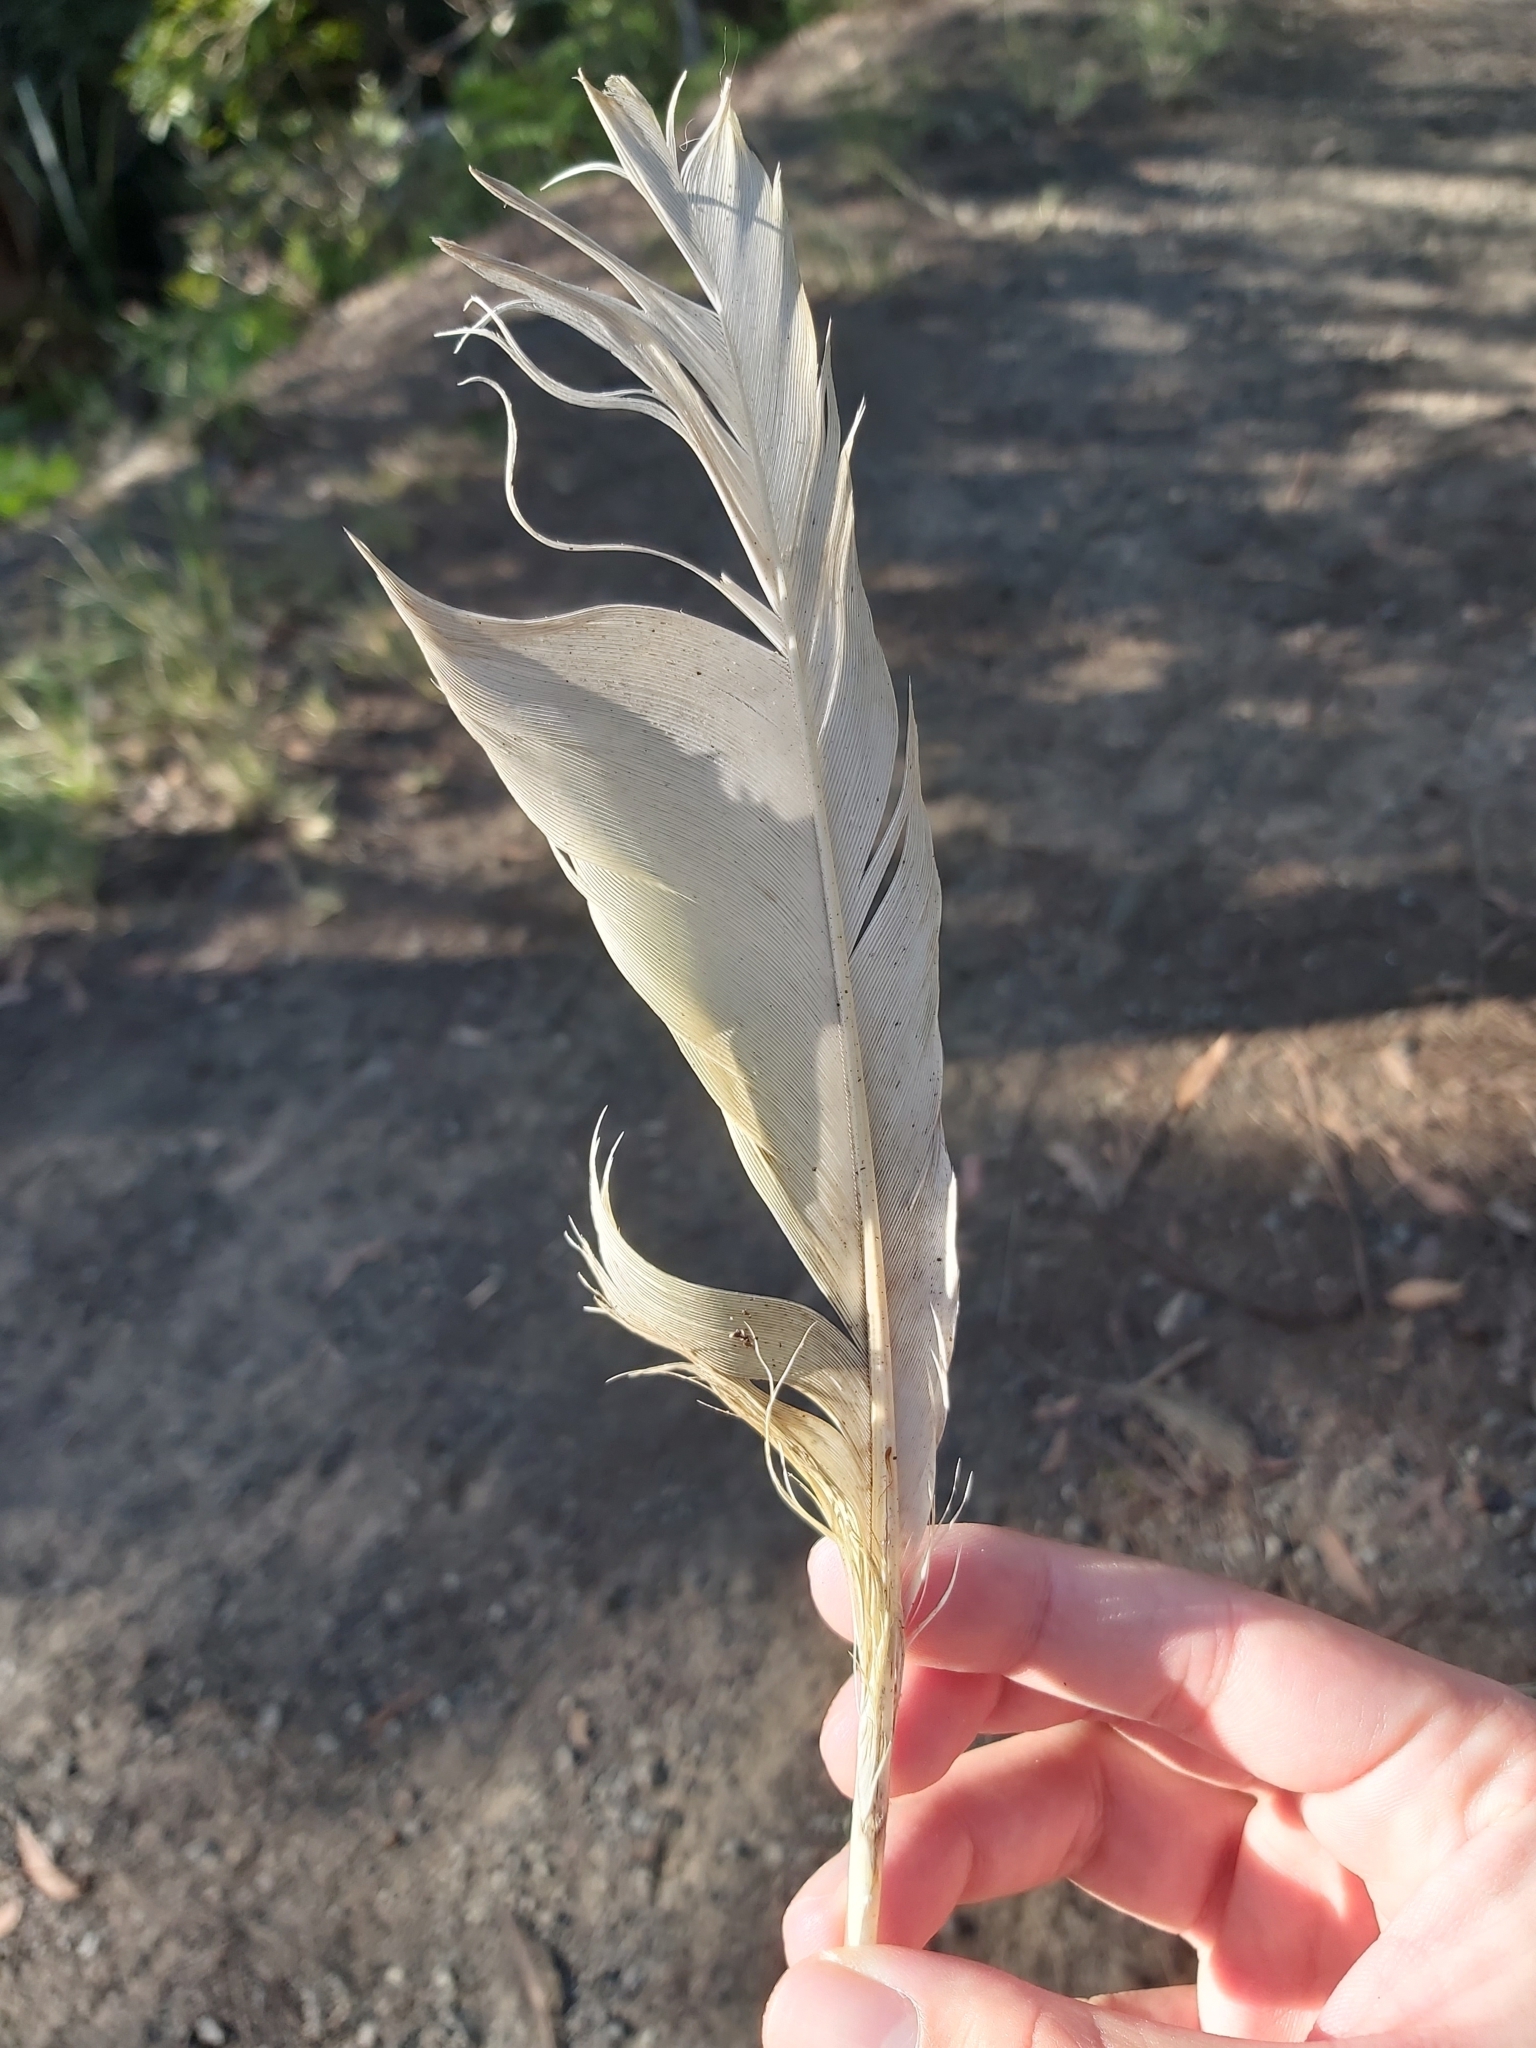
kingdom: Animalia
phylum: Chordata
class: Aves
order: Psittaciformes
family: Psittacidae
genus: Cacatua
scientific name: Cacatua galerita
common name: Sulphur-crested cockatoo
